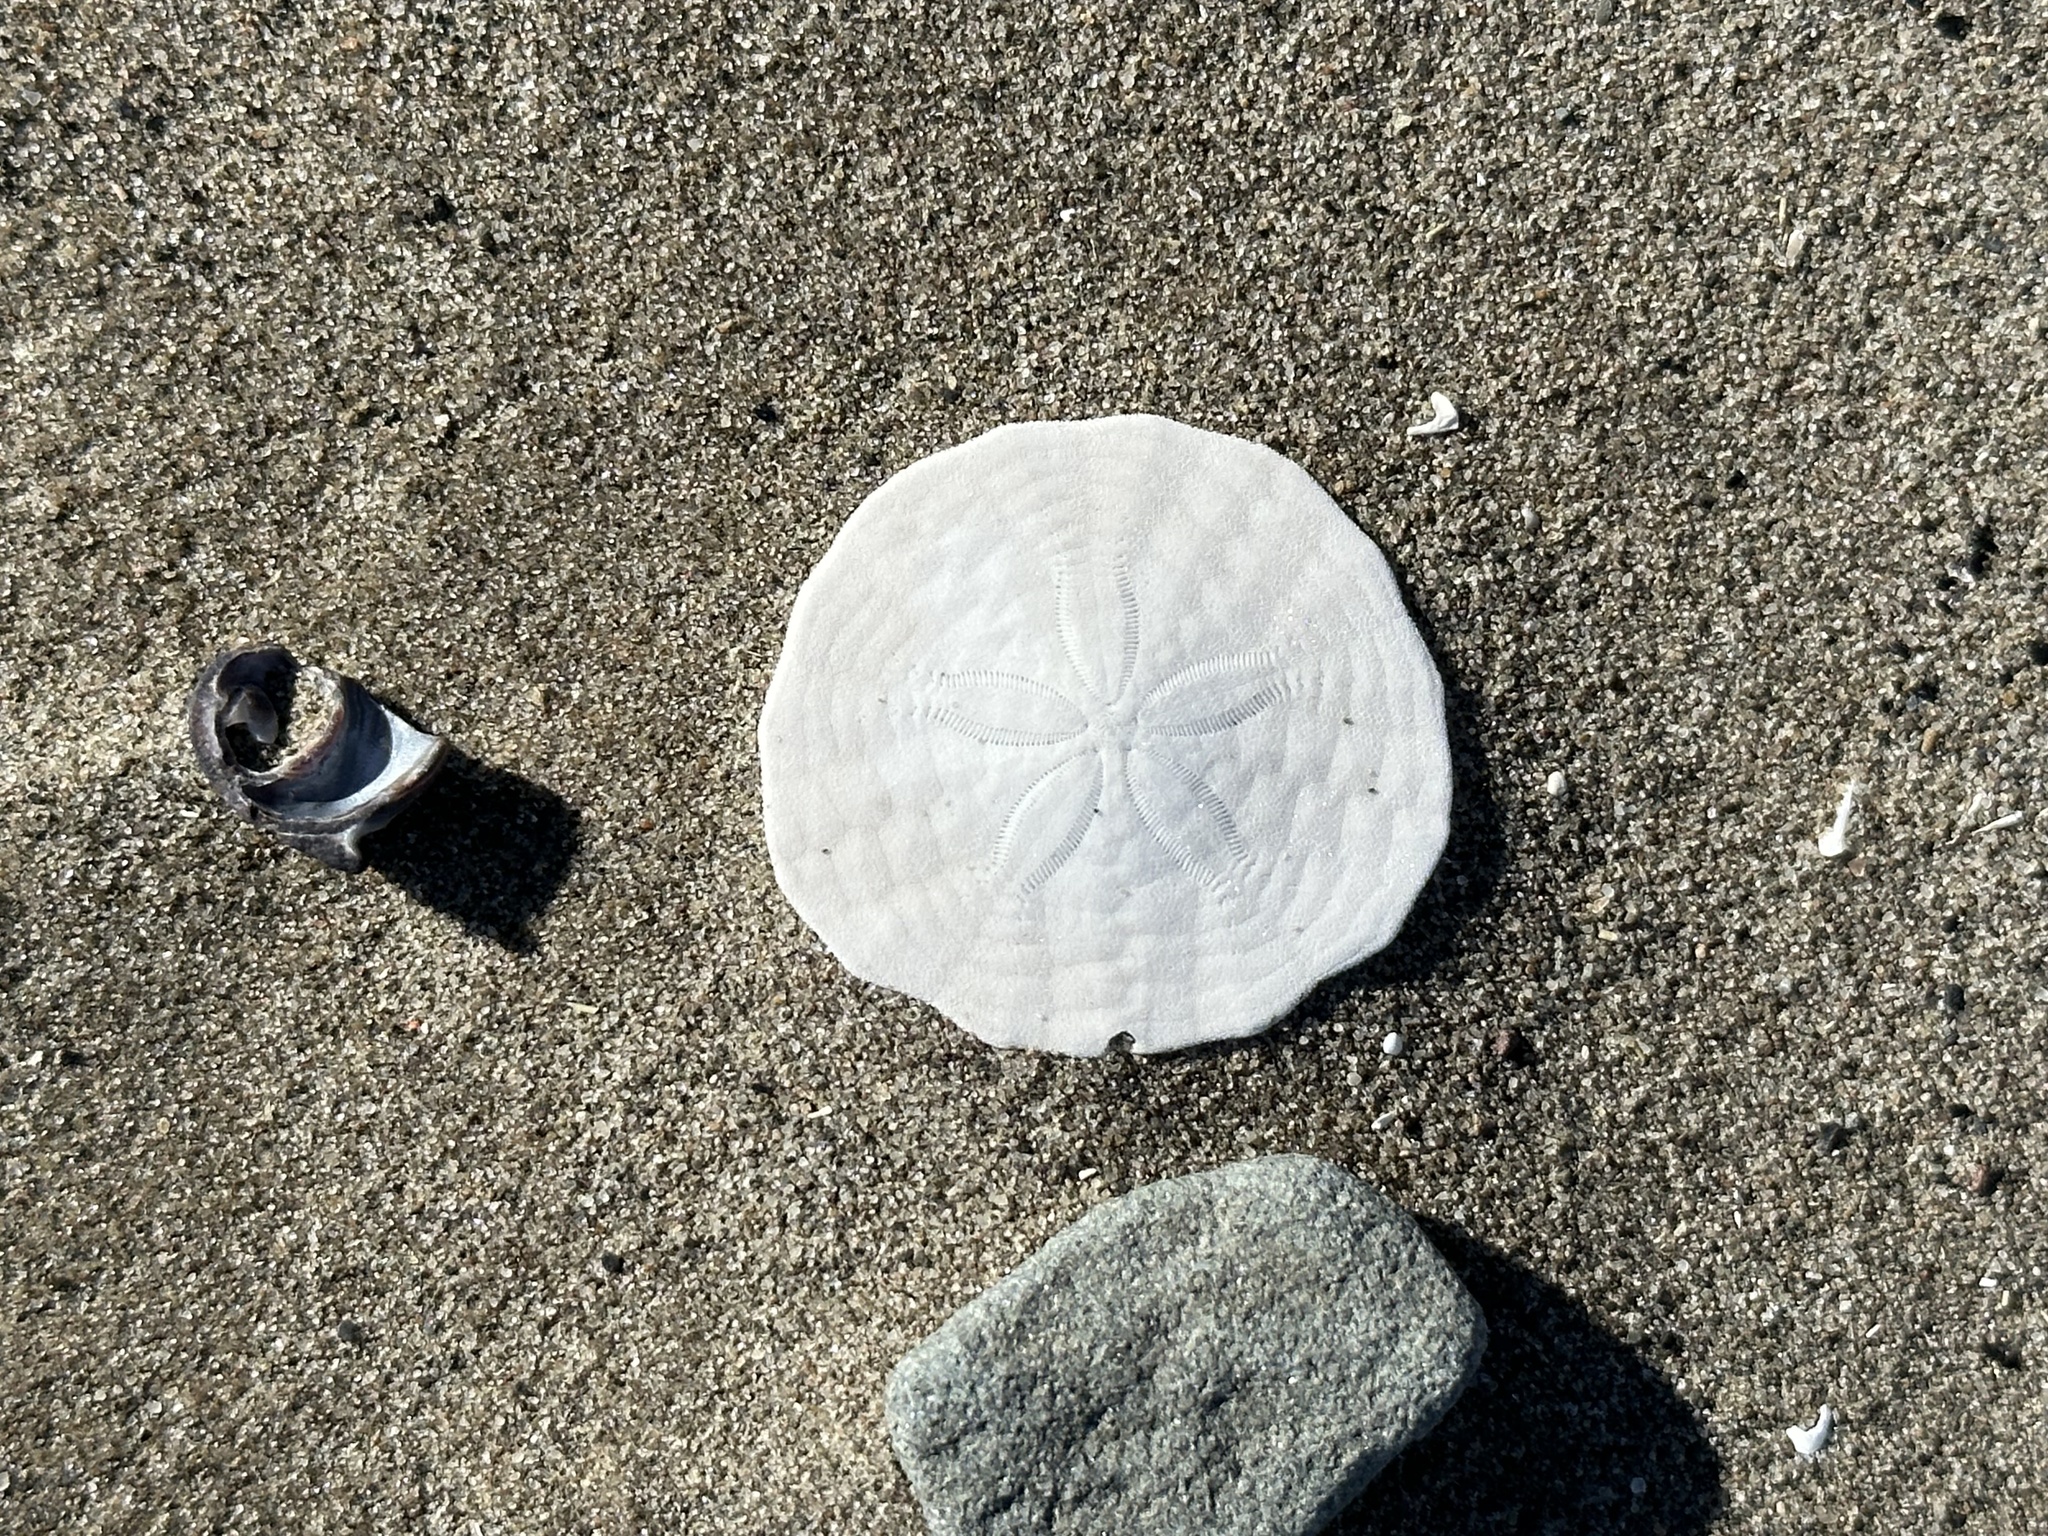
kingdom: Animalia
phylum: Echinodermata
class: Echinoidea
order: Echinolampadacea
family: Echinarachniidae
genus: Echinarachnius
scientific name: Echinarachnius parma
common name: Common sand dollar
